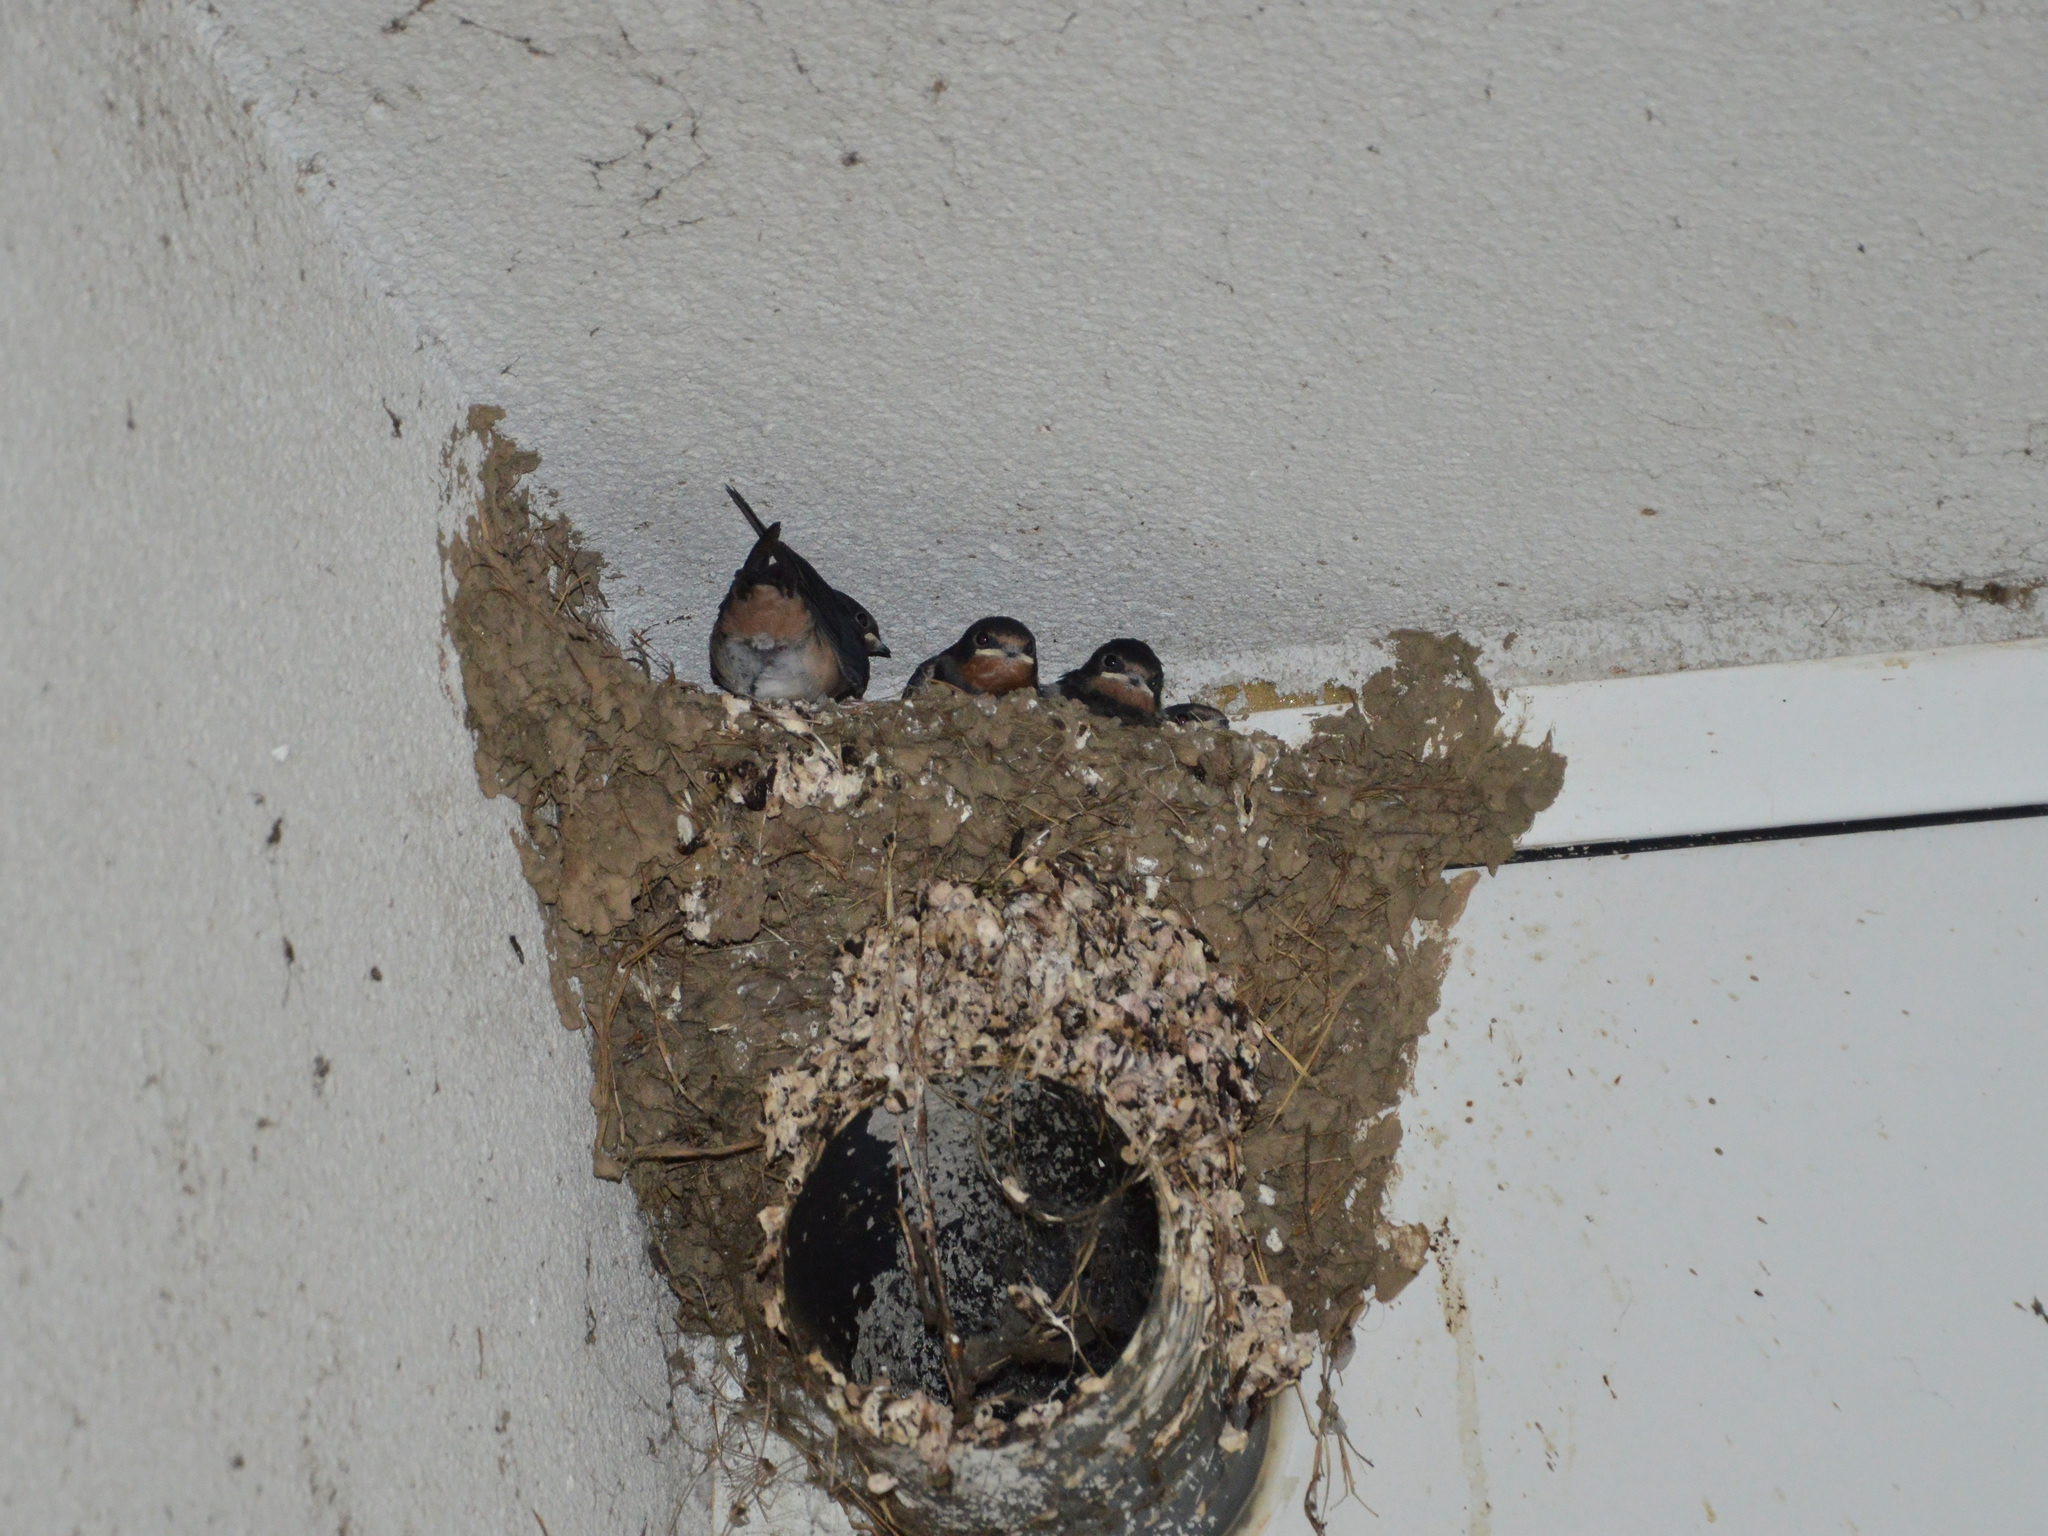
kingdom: Animalia
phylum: Chordata
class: Aves
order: Passeriformes
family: Hirundinidae
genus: Hirundo
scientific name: Hirundo rustica
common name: Barn swallow
